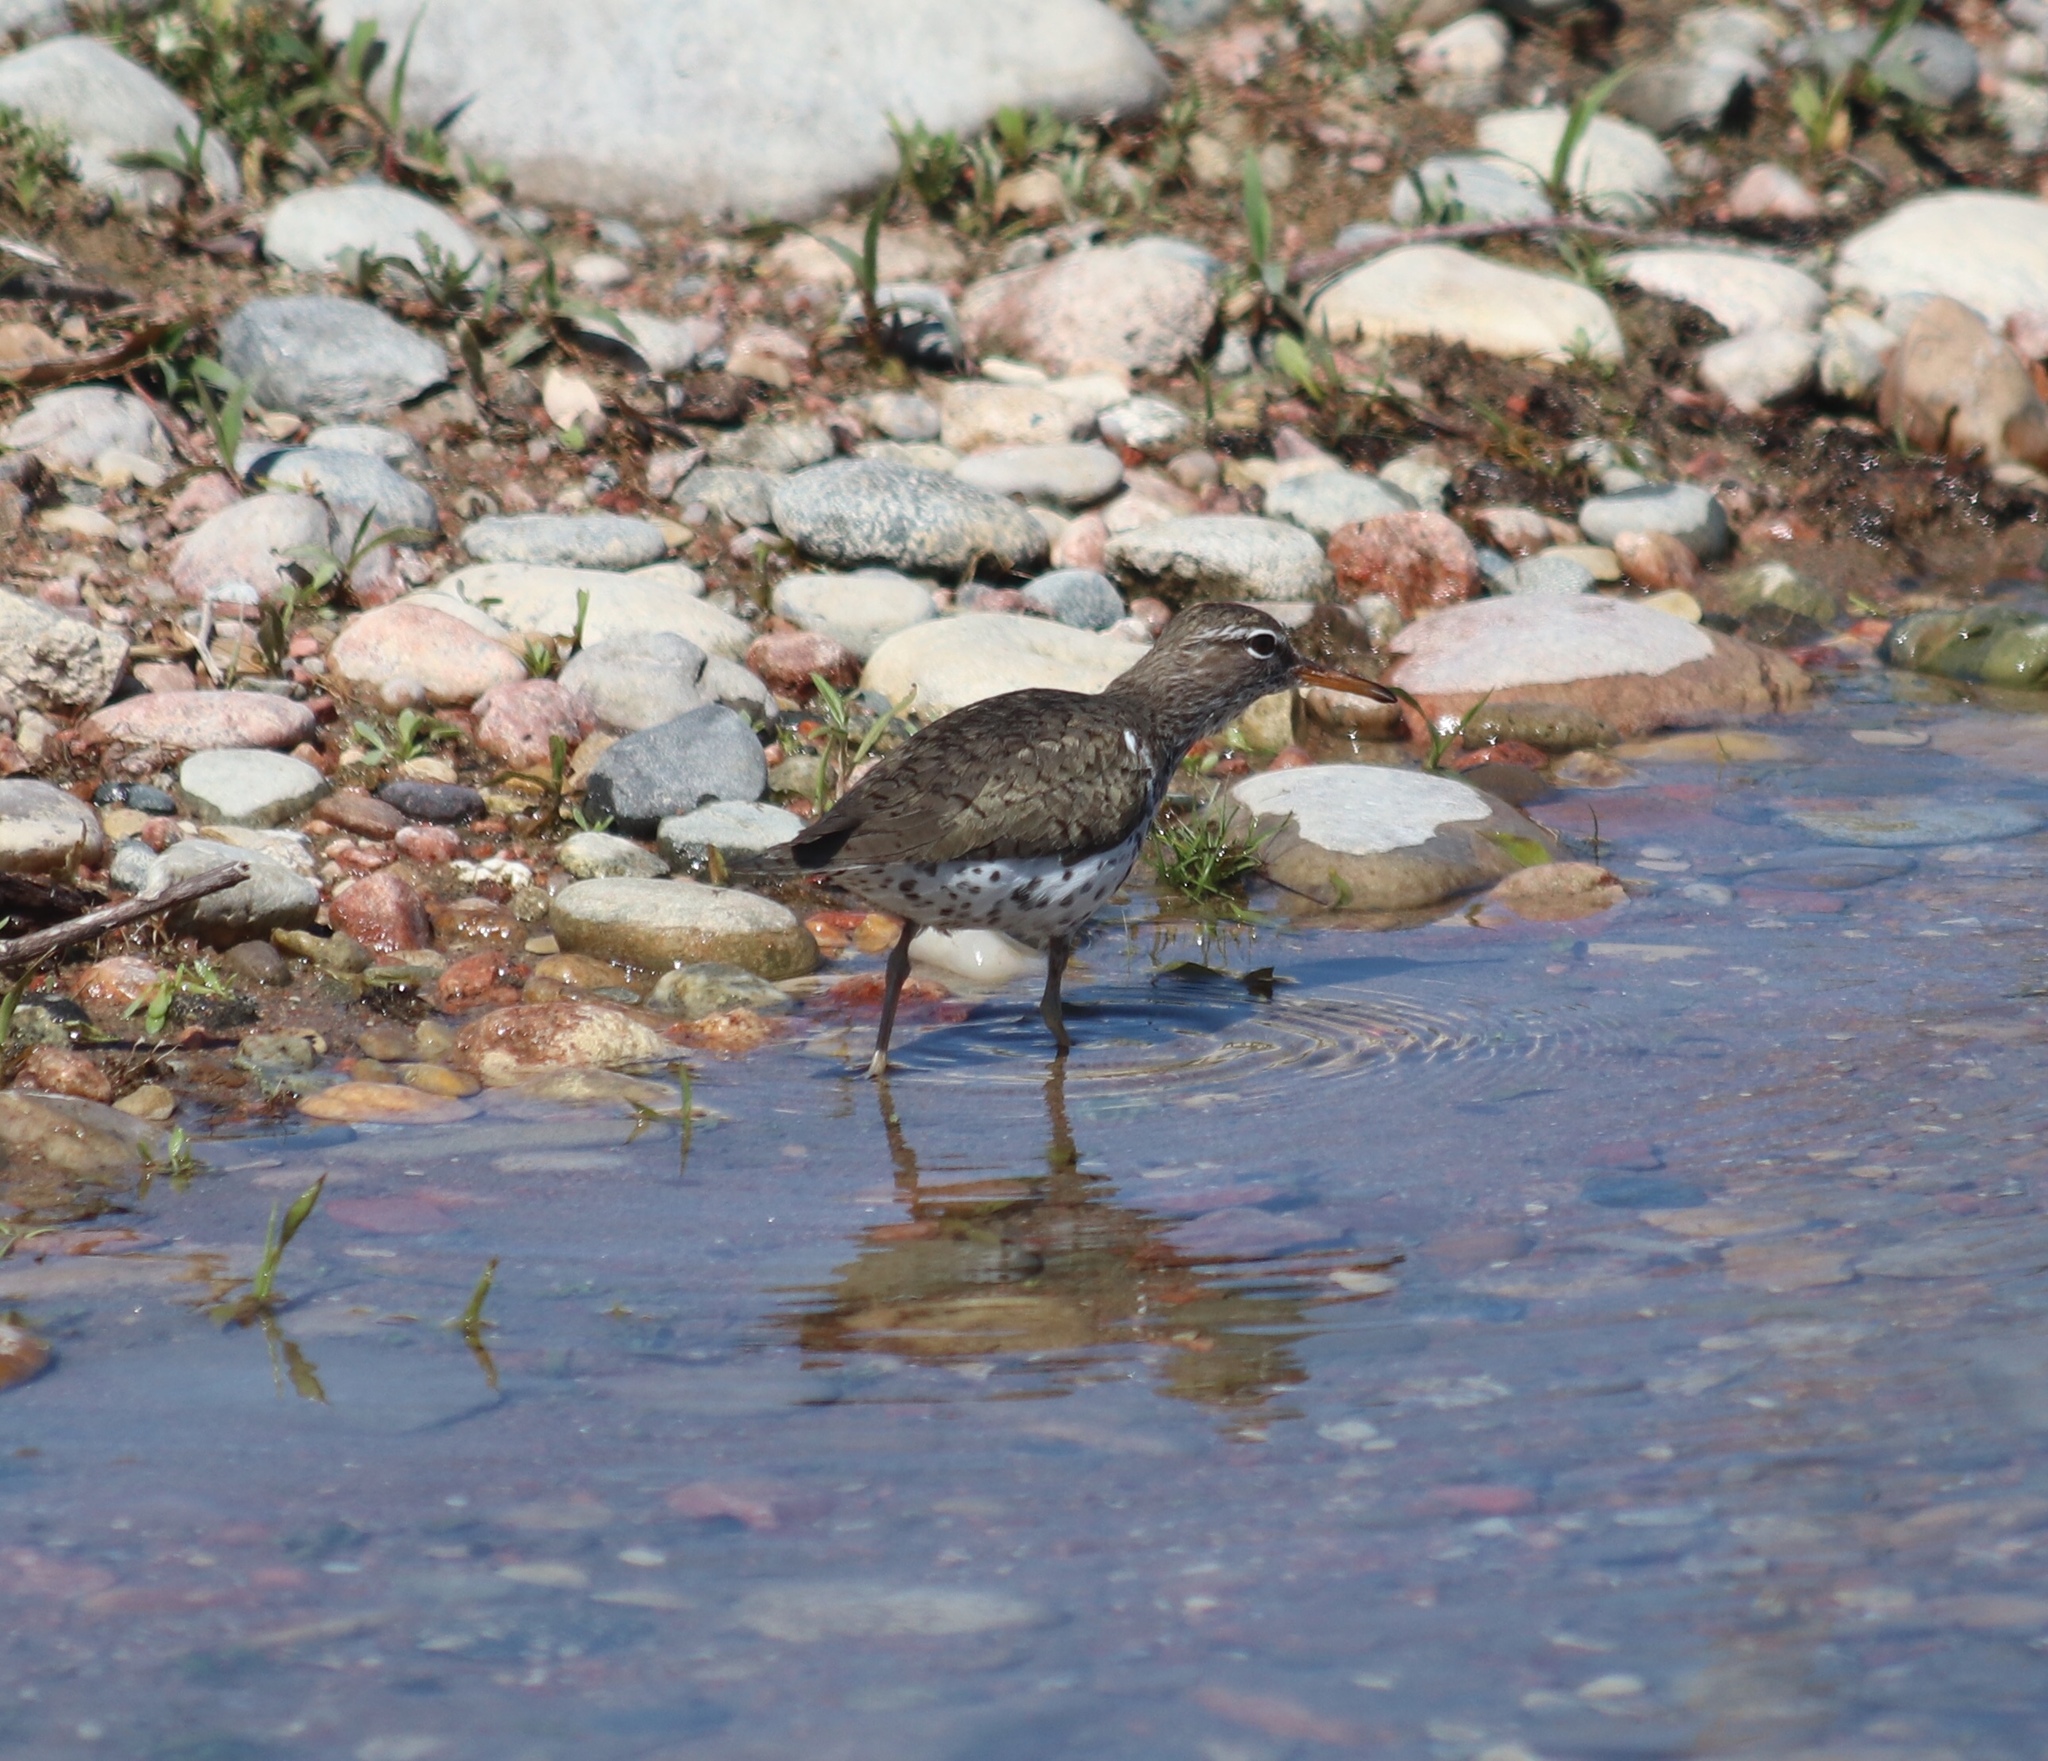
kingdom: Animalia
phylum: Chordata
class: Aves
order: Charadriiformes
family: Scolopacidae
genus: Actitis
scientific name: Actitis macularius
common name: Spotted sandpiper
